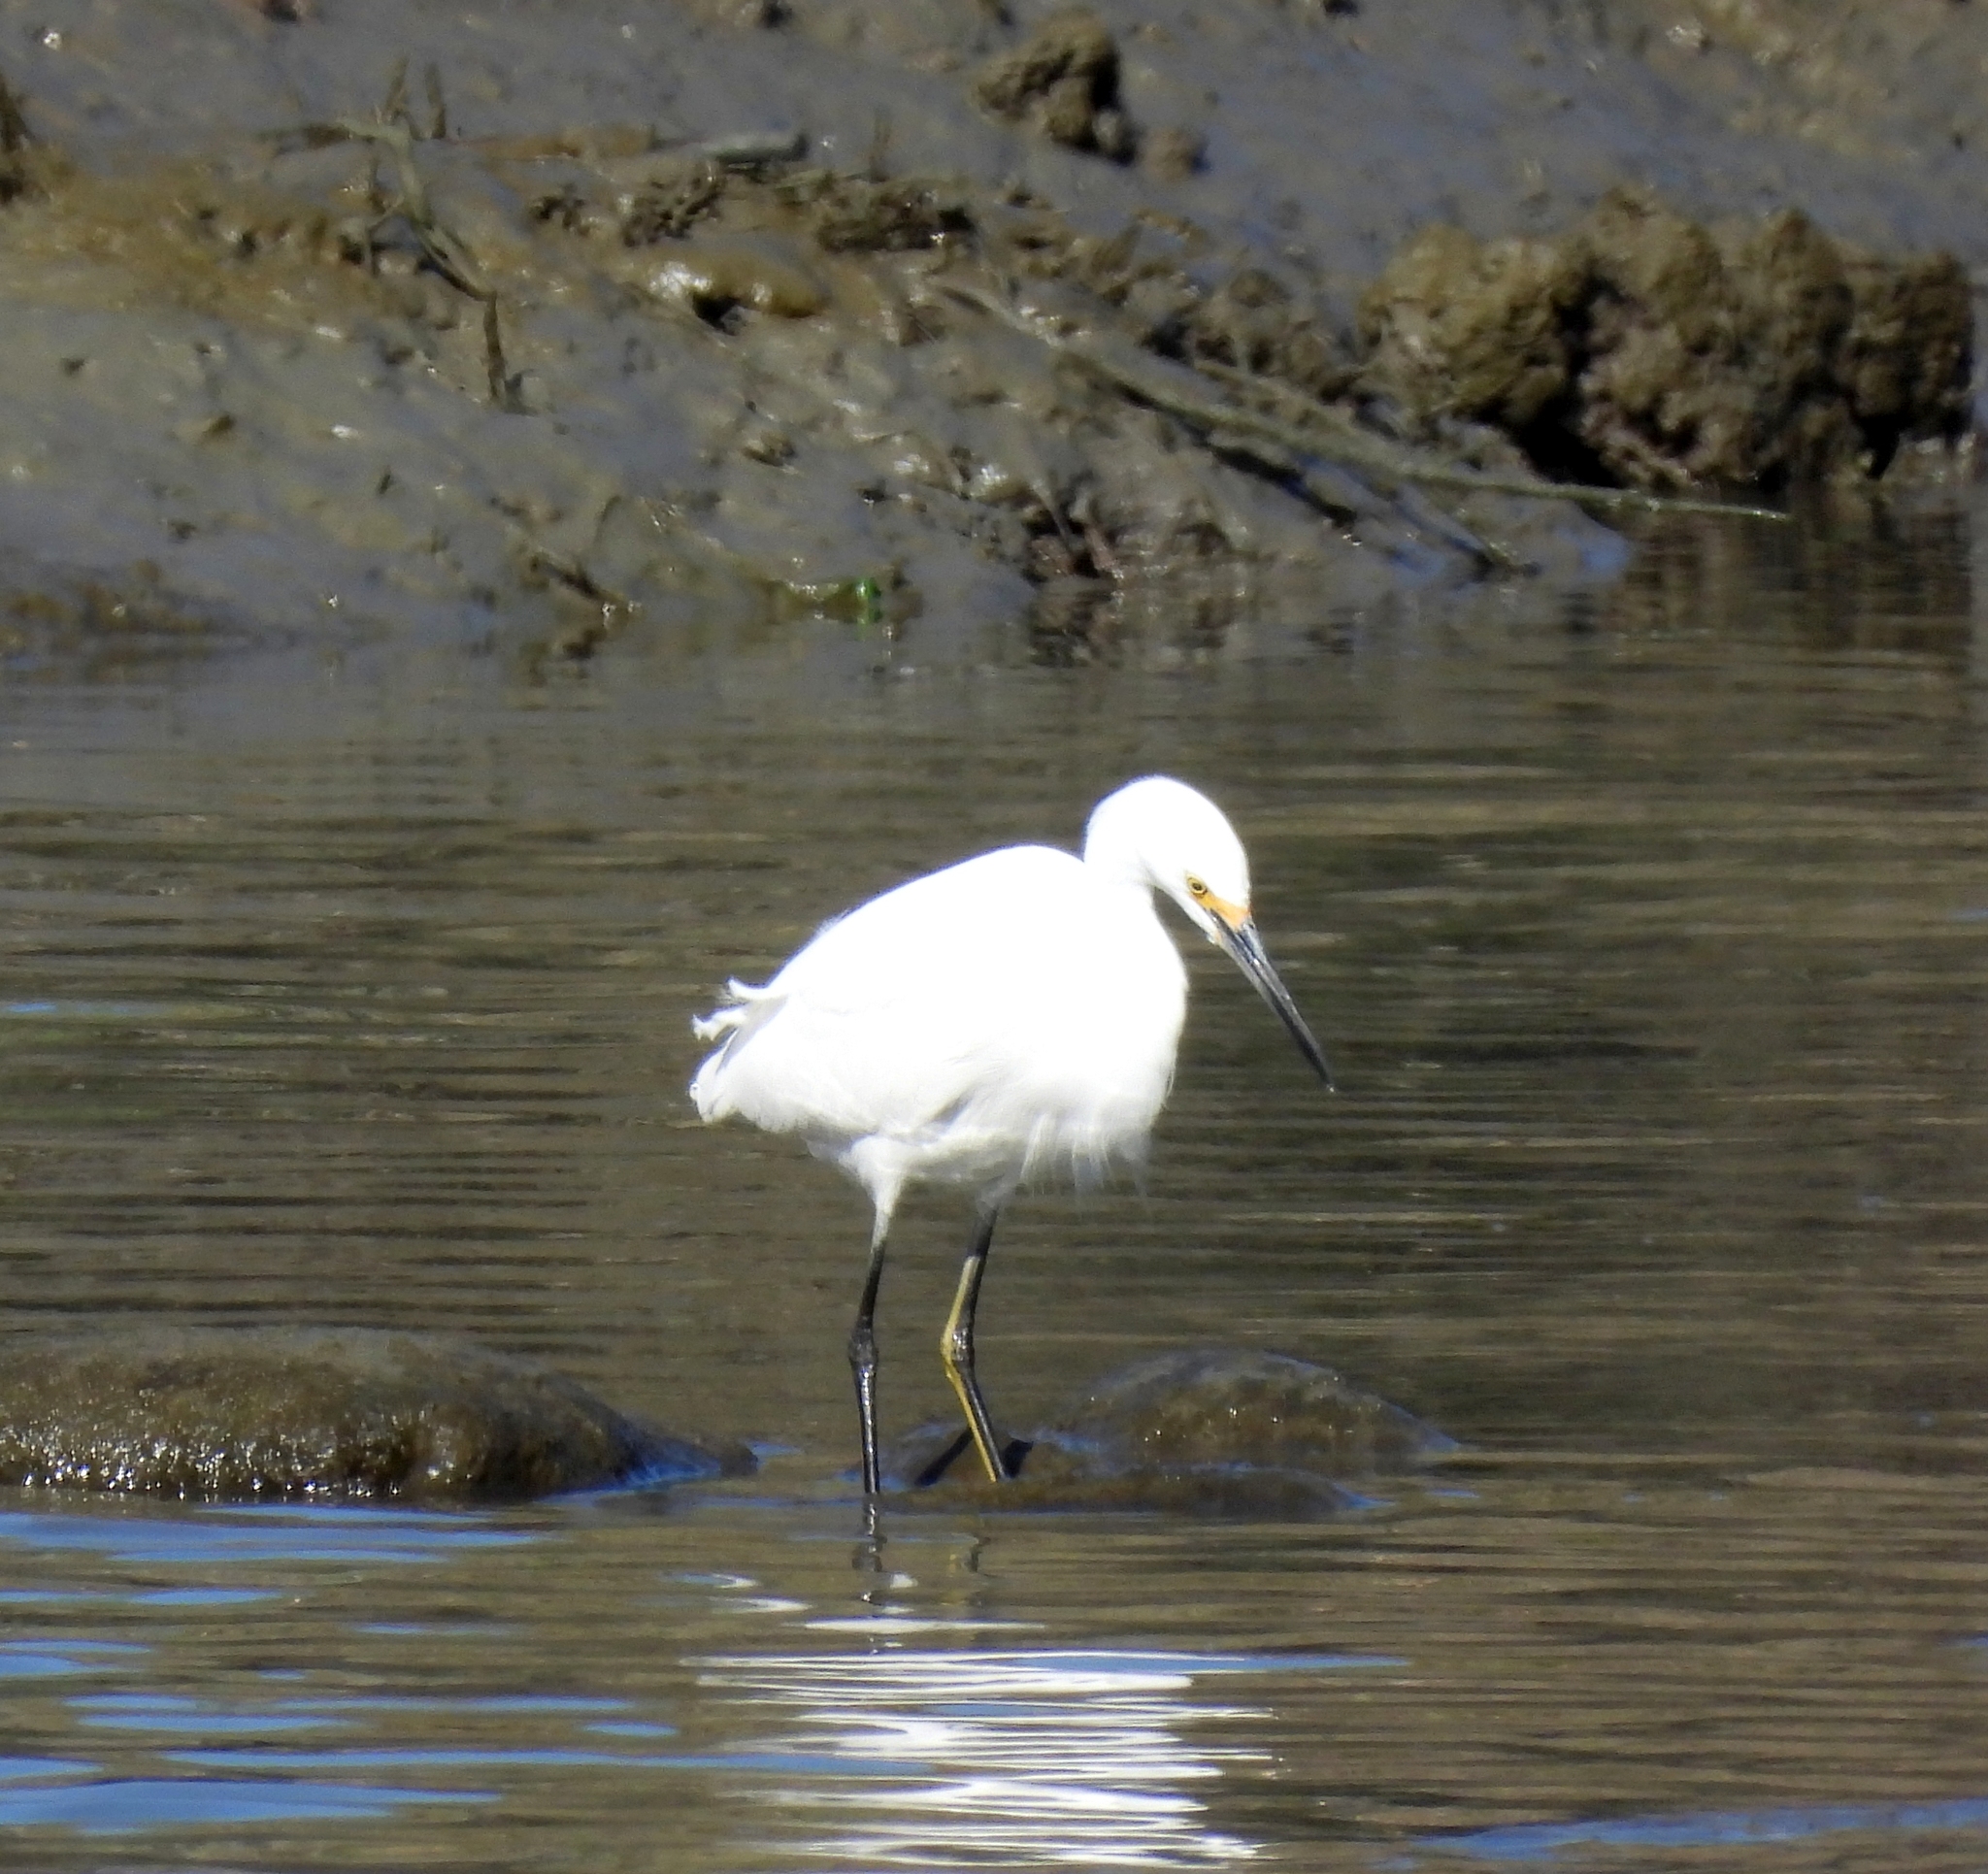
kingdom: Animalia
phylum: Chordata
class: Aves
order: Pelecaniformes
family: Ardeidae
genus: Egretta
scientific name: Egretta thula
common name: Snowy egret
